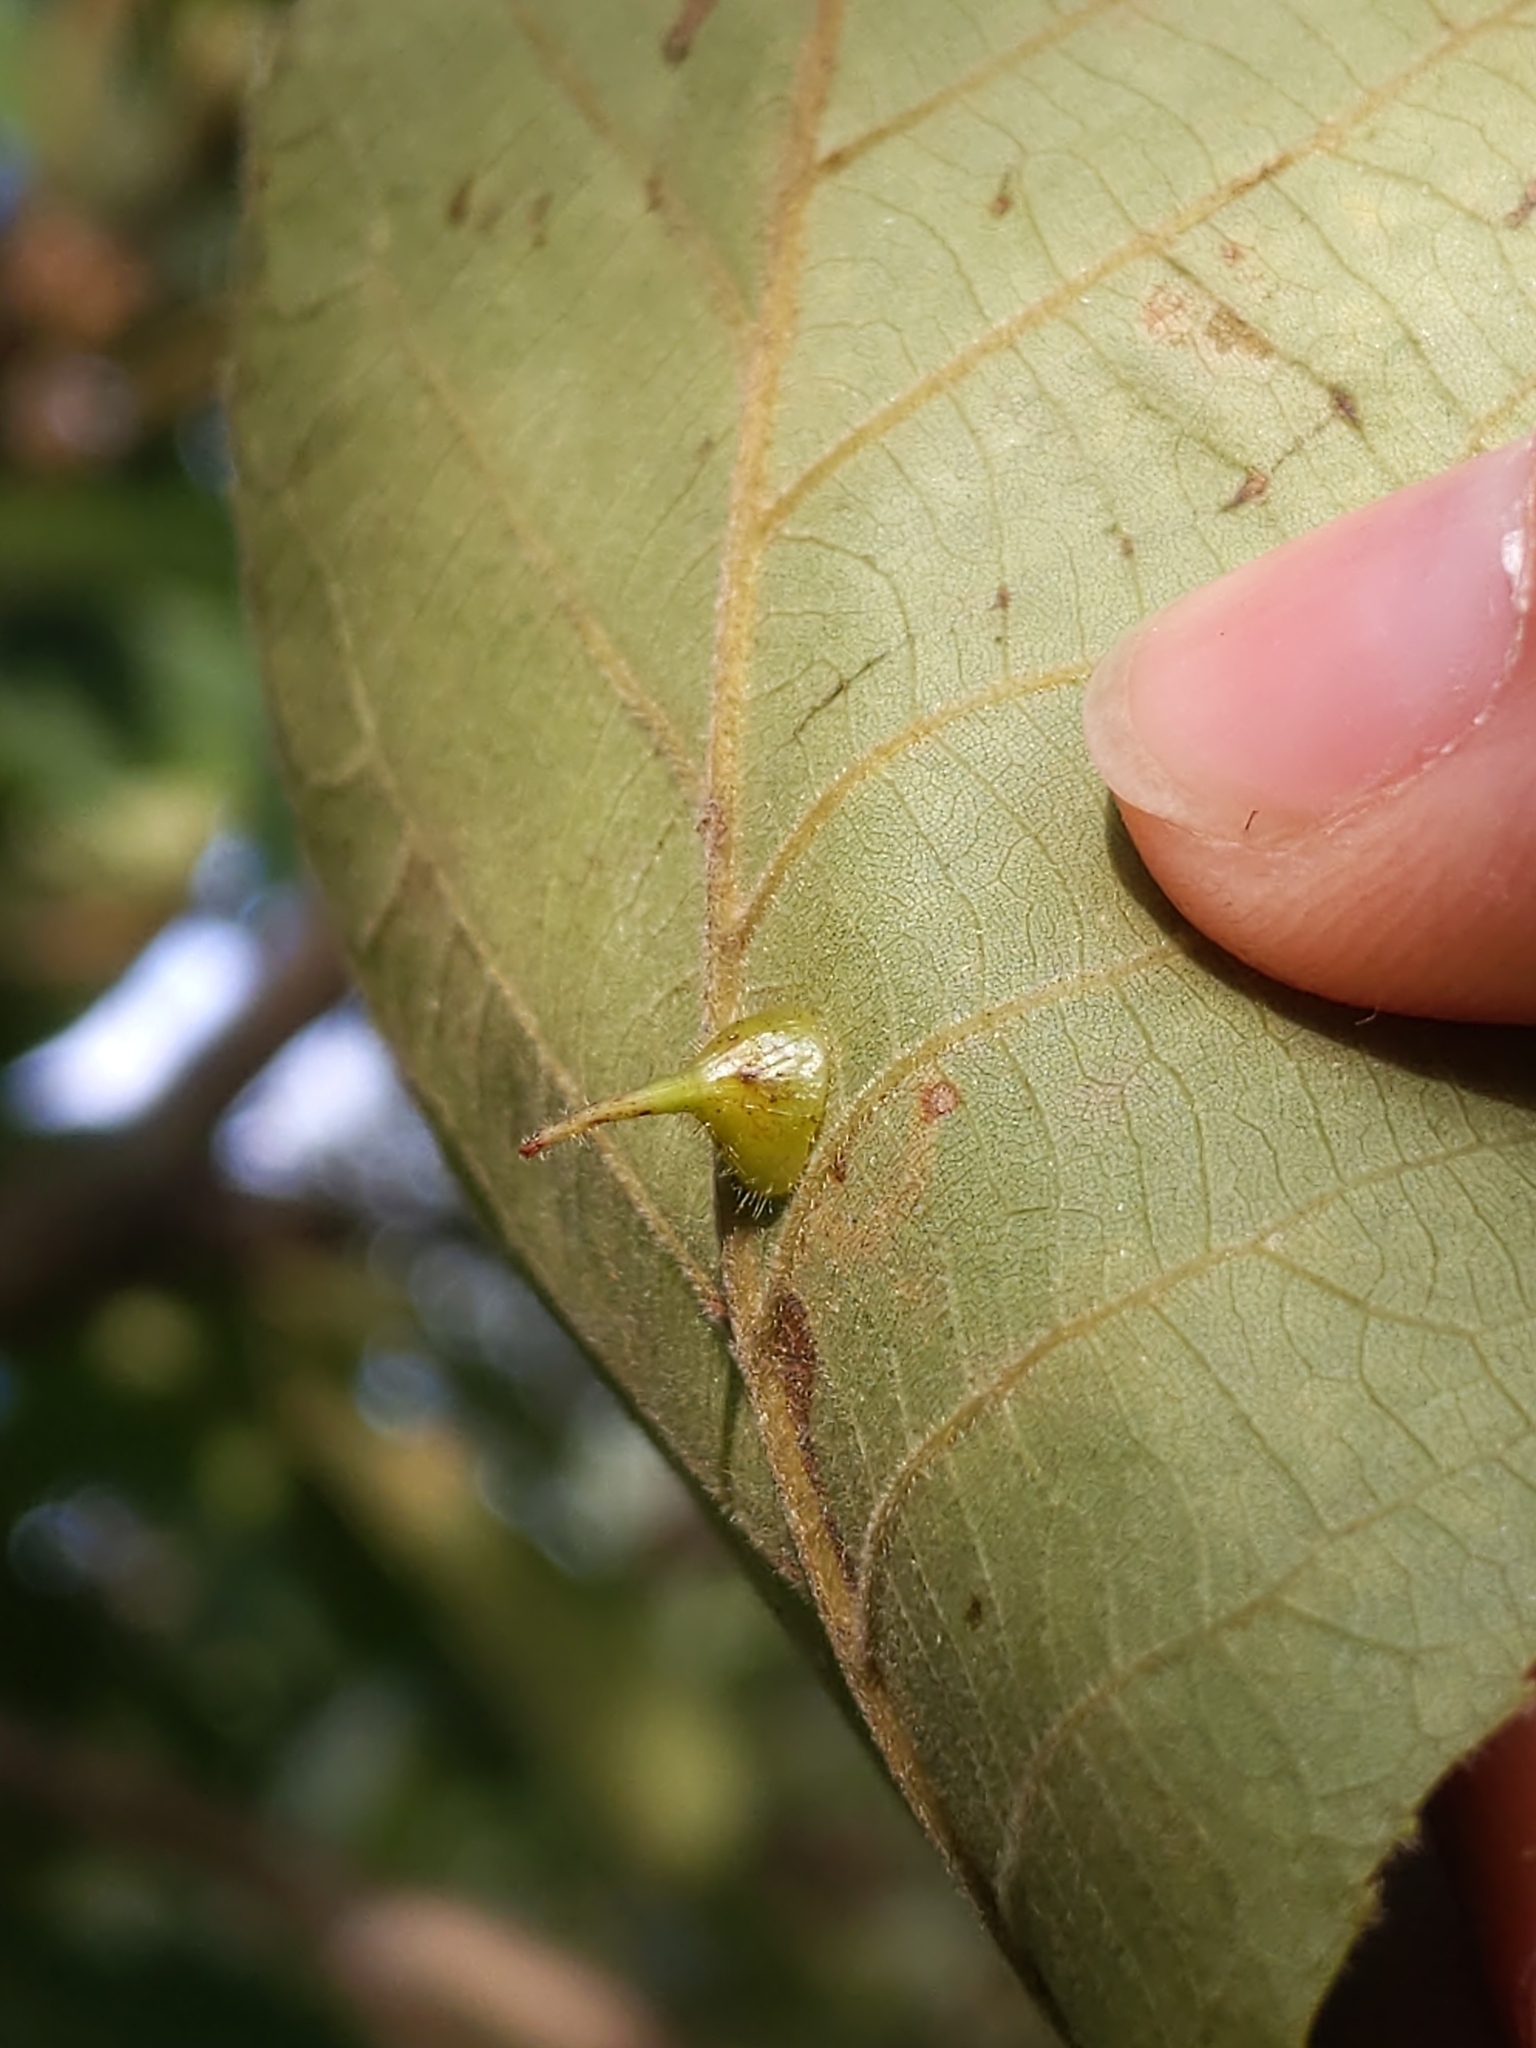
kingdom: Animalia
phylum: Arthropoda
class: Insecta
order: Diptera
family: Cecidomyiidae
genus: Caryomyia
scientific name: Caryomyia marginata
